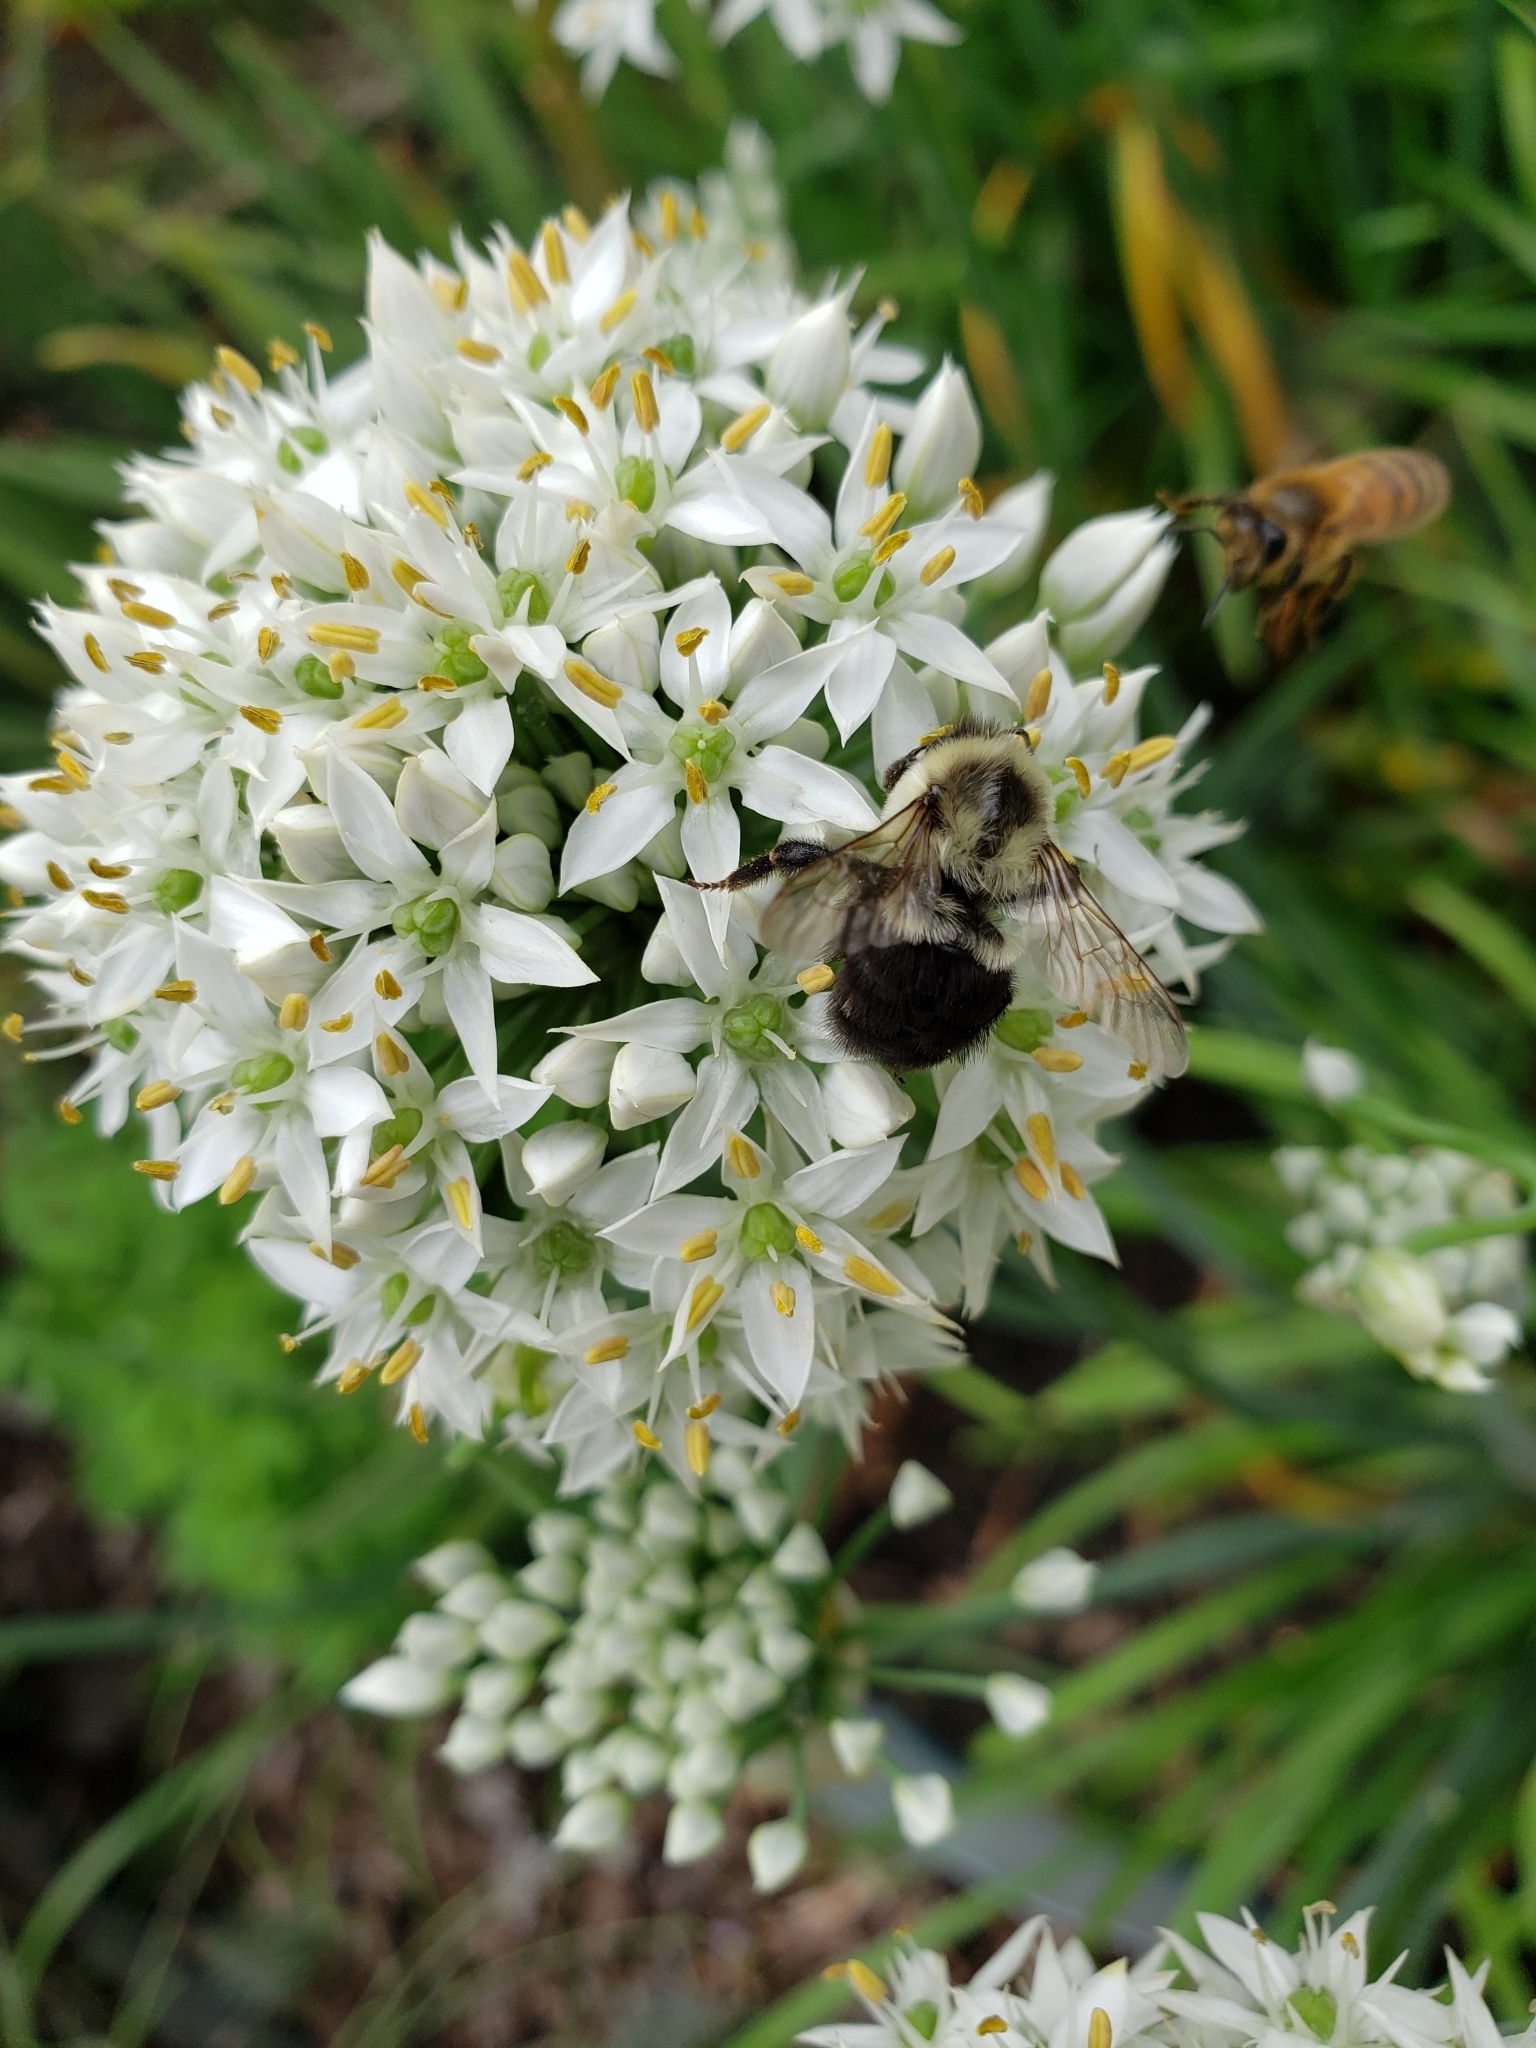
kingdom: Animalia
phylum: Arthropoda
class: Insecta
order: Hymenoptera
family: Apidae
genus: Bombus
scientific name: Bombus impatiens
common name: Common eastern bumble bee
